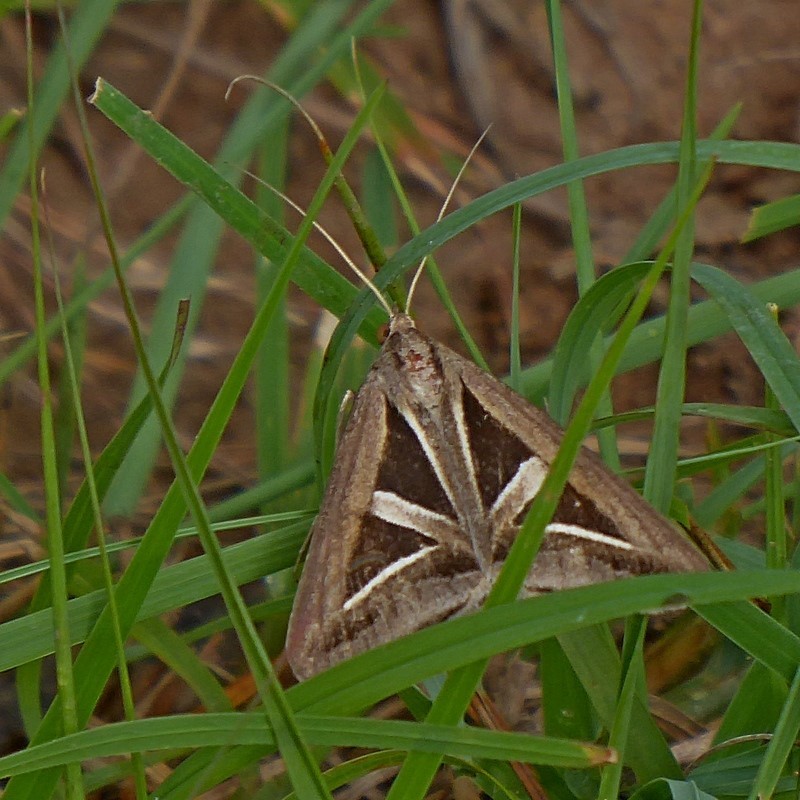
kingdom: Animalia
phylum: Arthropoda
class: Insecta
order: Lepidoptera
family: Erebidae
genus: Trigonodes
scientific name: Trigonodes hyppasia
